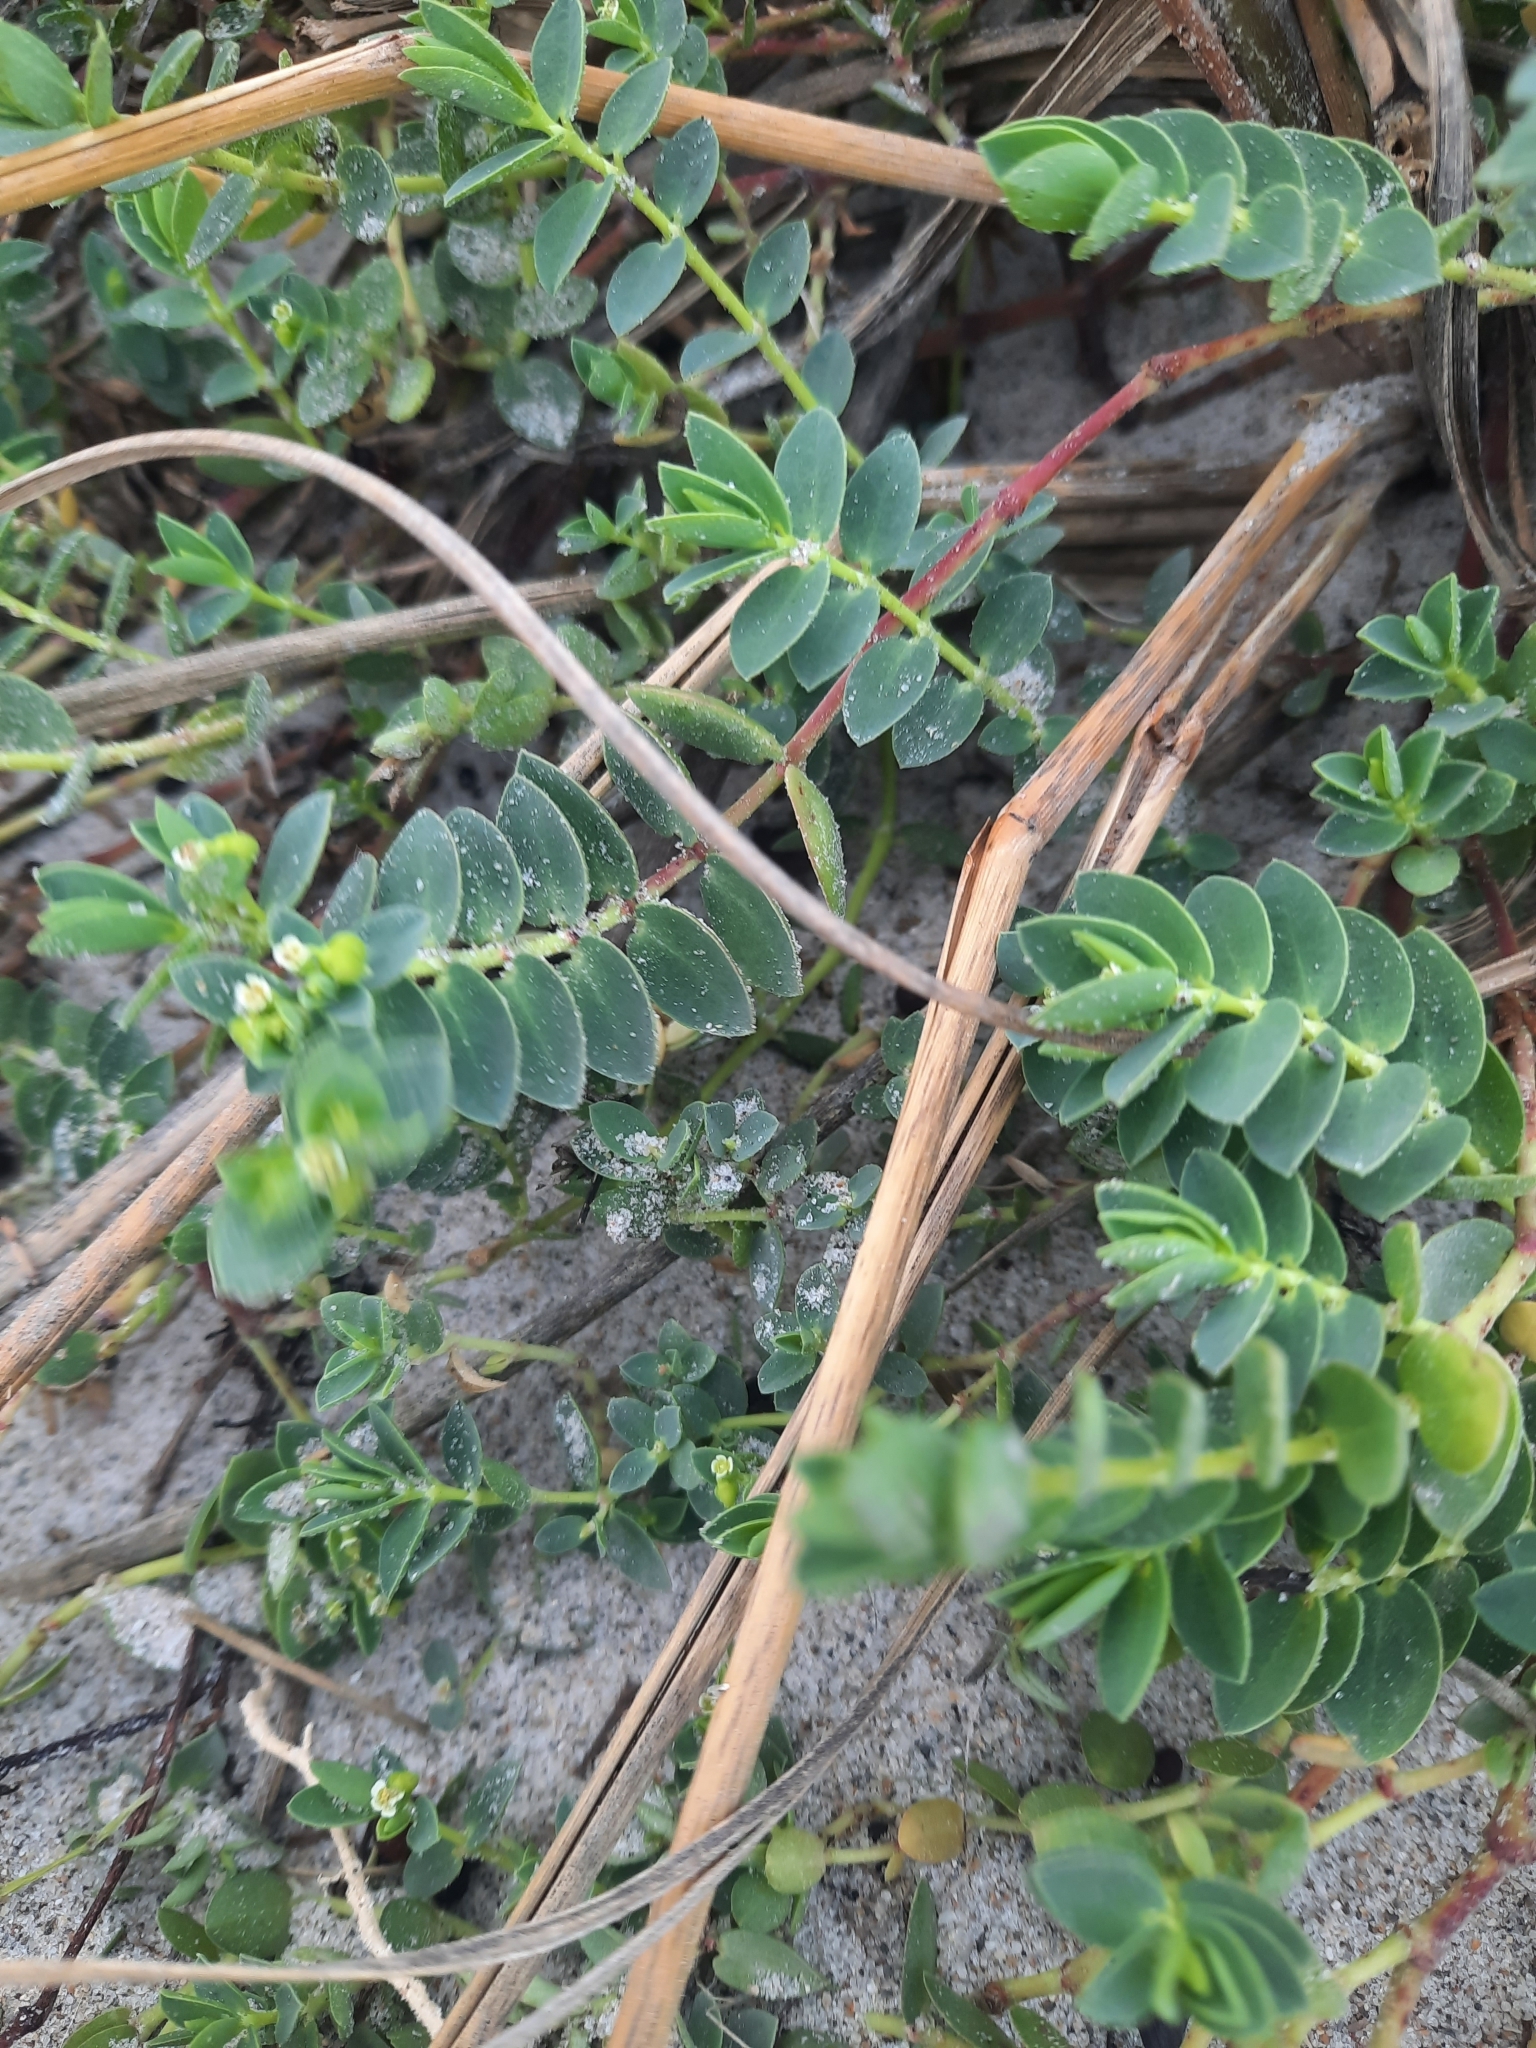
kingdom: Plantae
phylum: Tracheophyta
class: Magnoliopsida
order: Malpighiales
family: Euphorbiaceae
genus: Euphorbia
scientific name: Euphorbia mesembryanthemifolia
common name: Coastal beach sandmat
